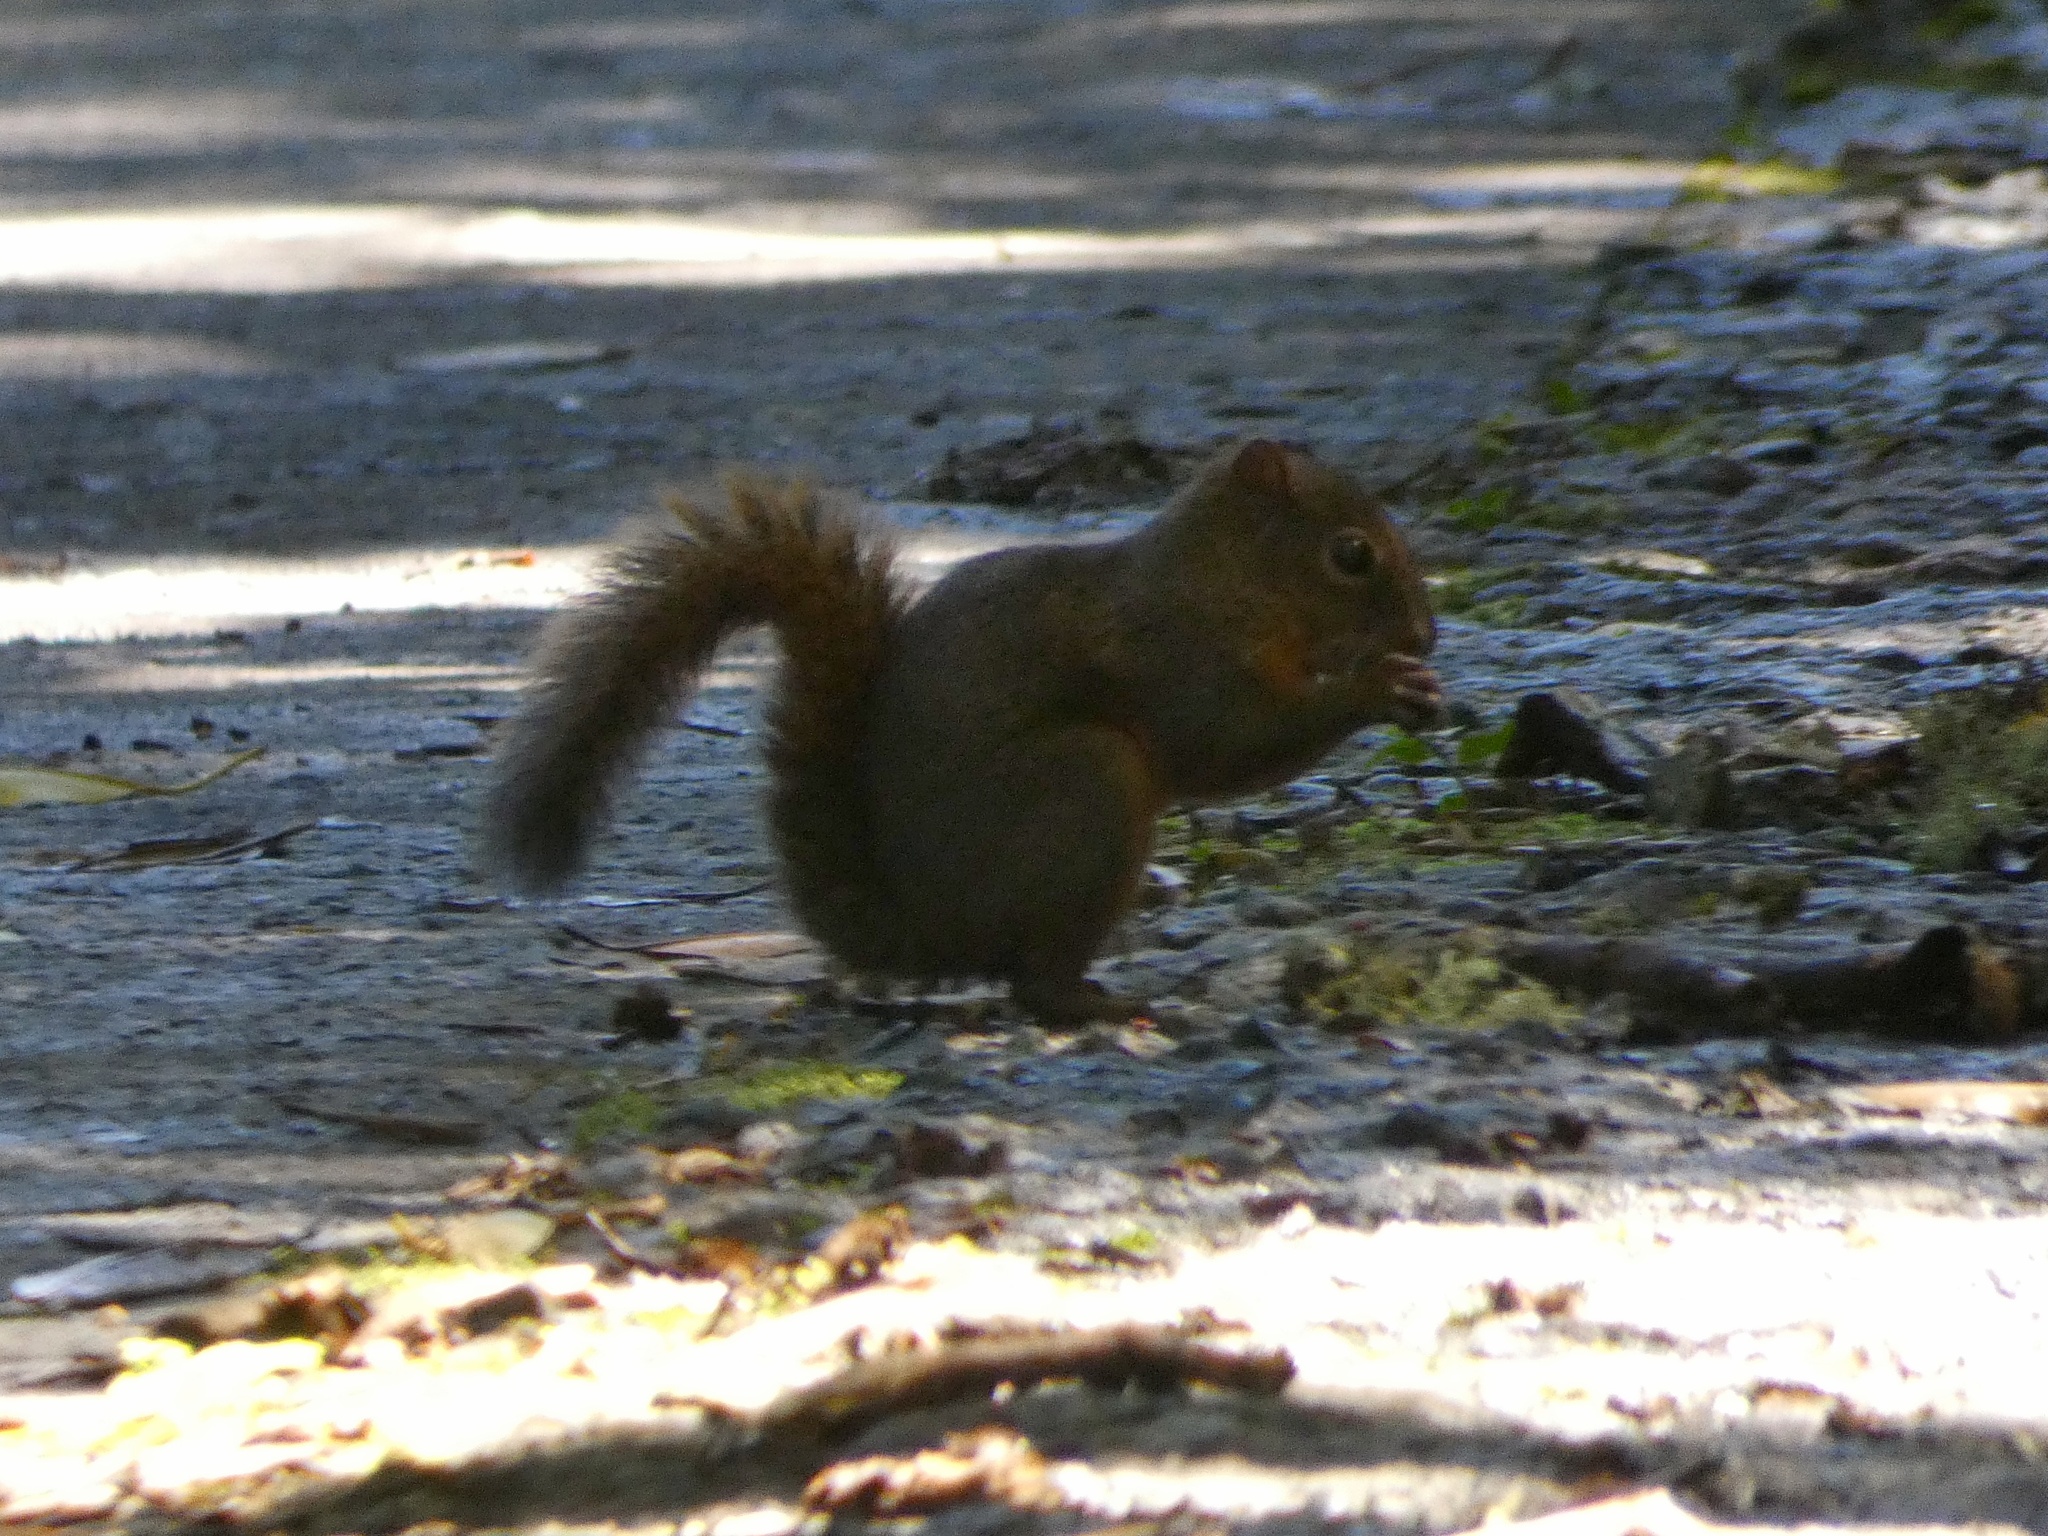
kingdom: Animalia
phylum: Chordata
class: Mammalia
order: Rodentia
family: Sciuridae
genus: Sciurus
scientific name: Sciurus granatensis
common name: Red-tailed squirrel
